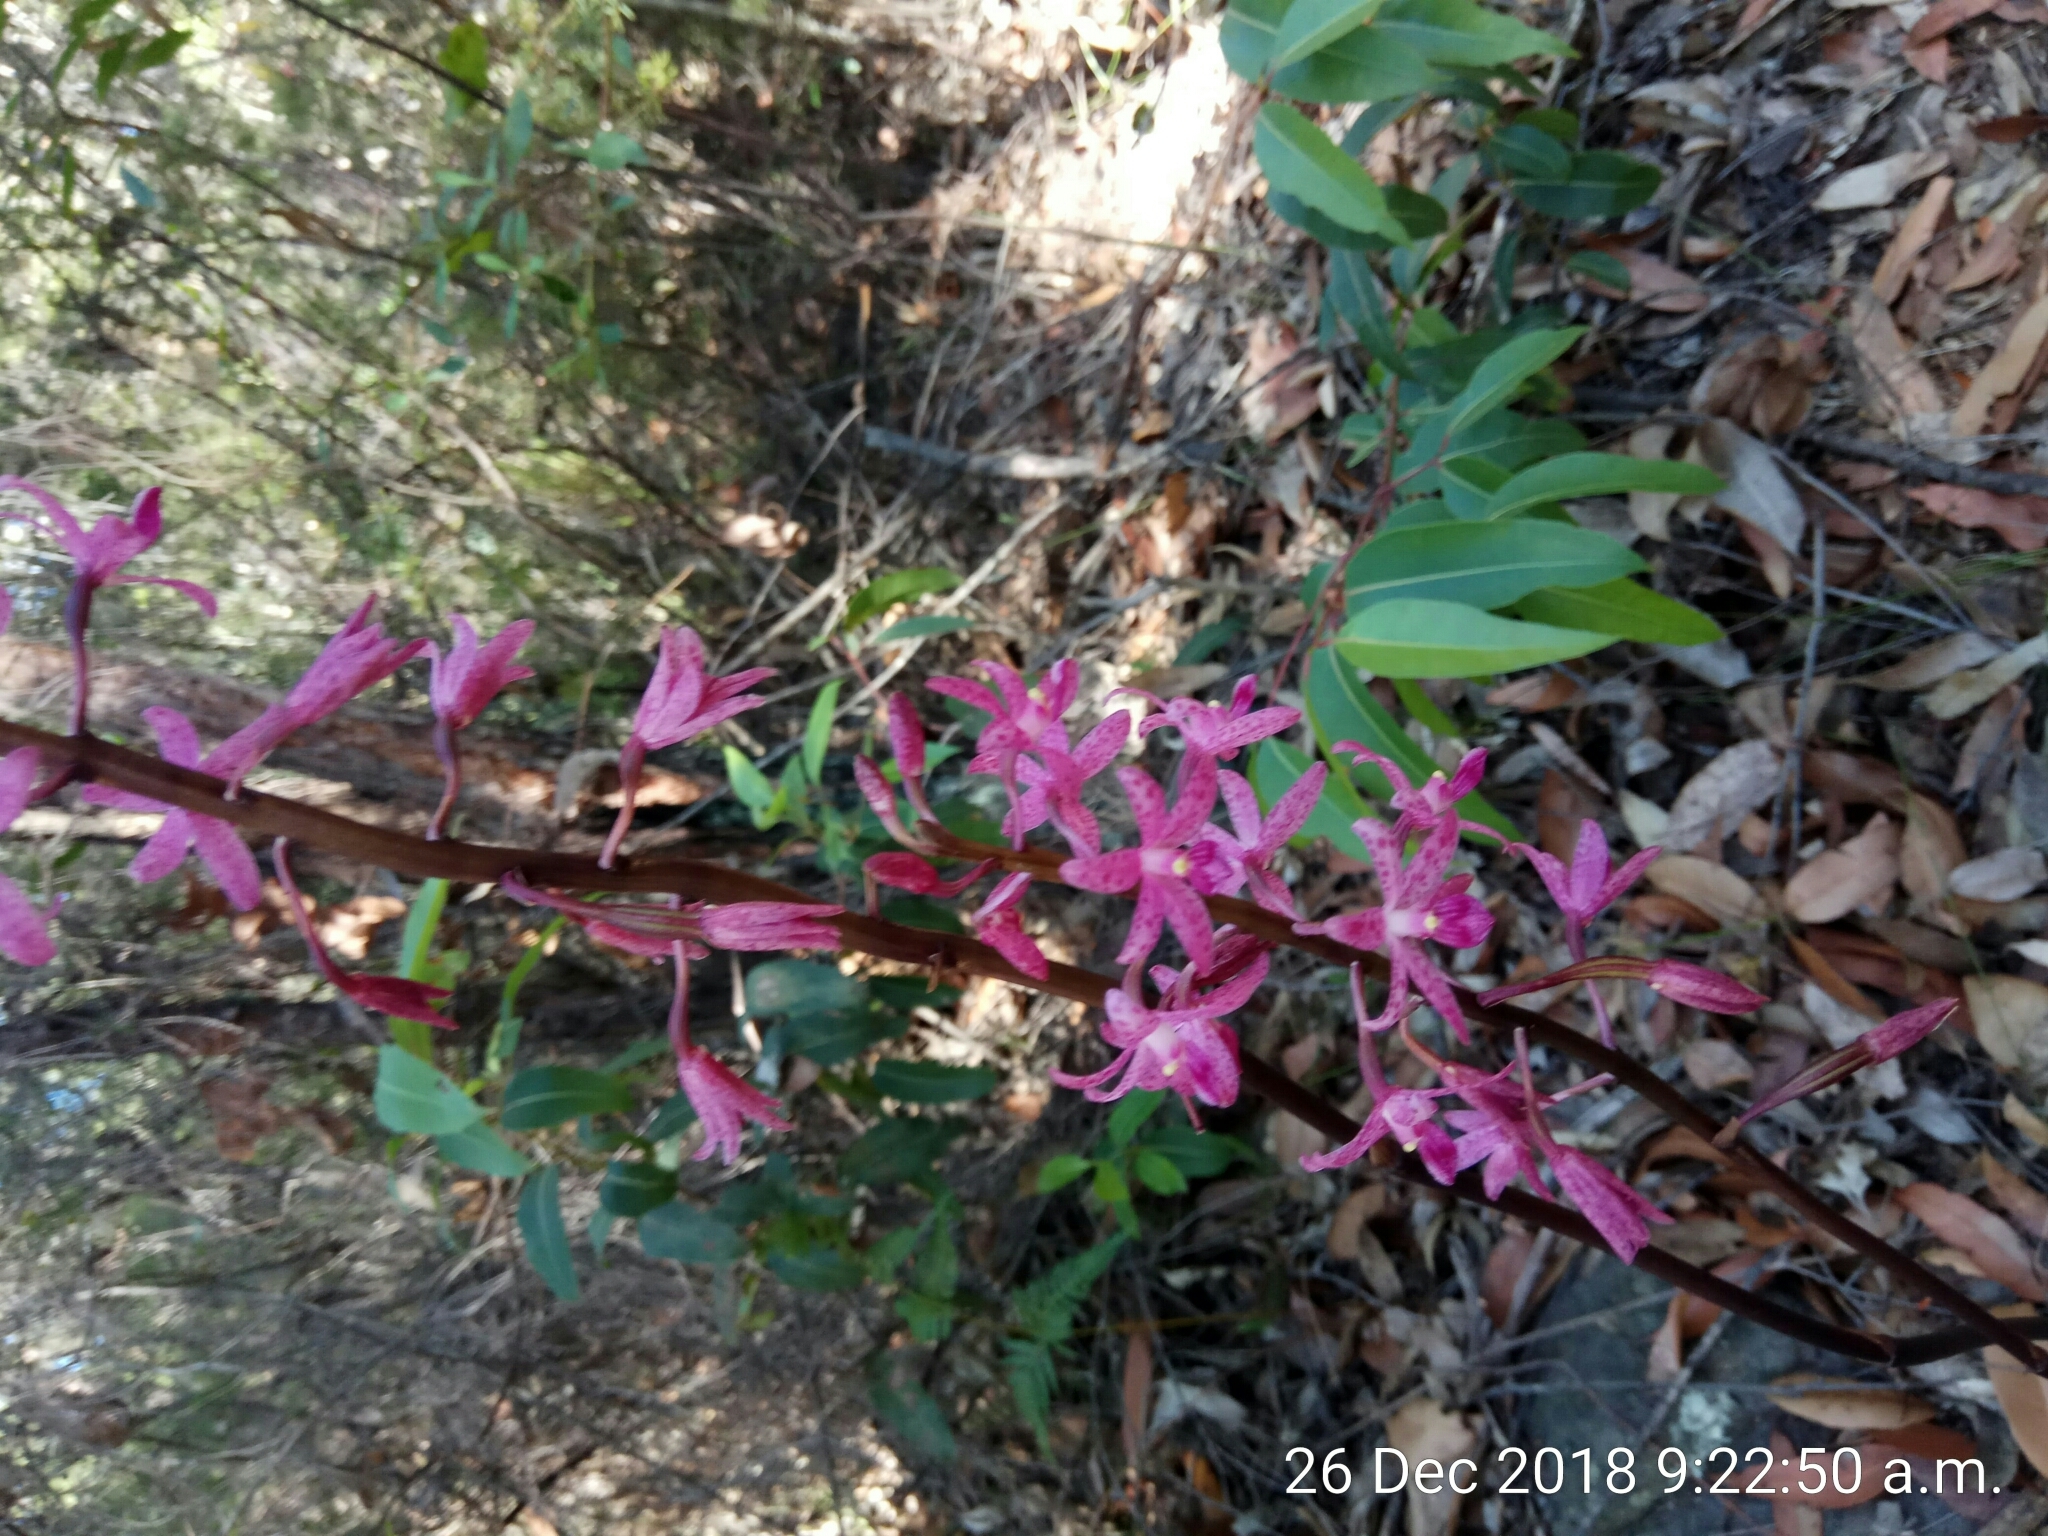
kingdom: Plantae
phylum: Tracheophyta
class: Liliopsida
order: Asparagales
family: Orchidaceae
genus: Dipodium
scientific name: Dipodium roseum
